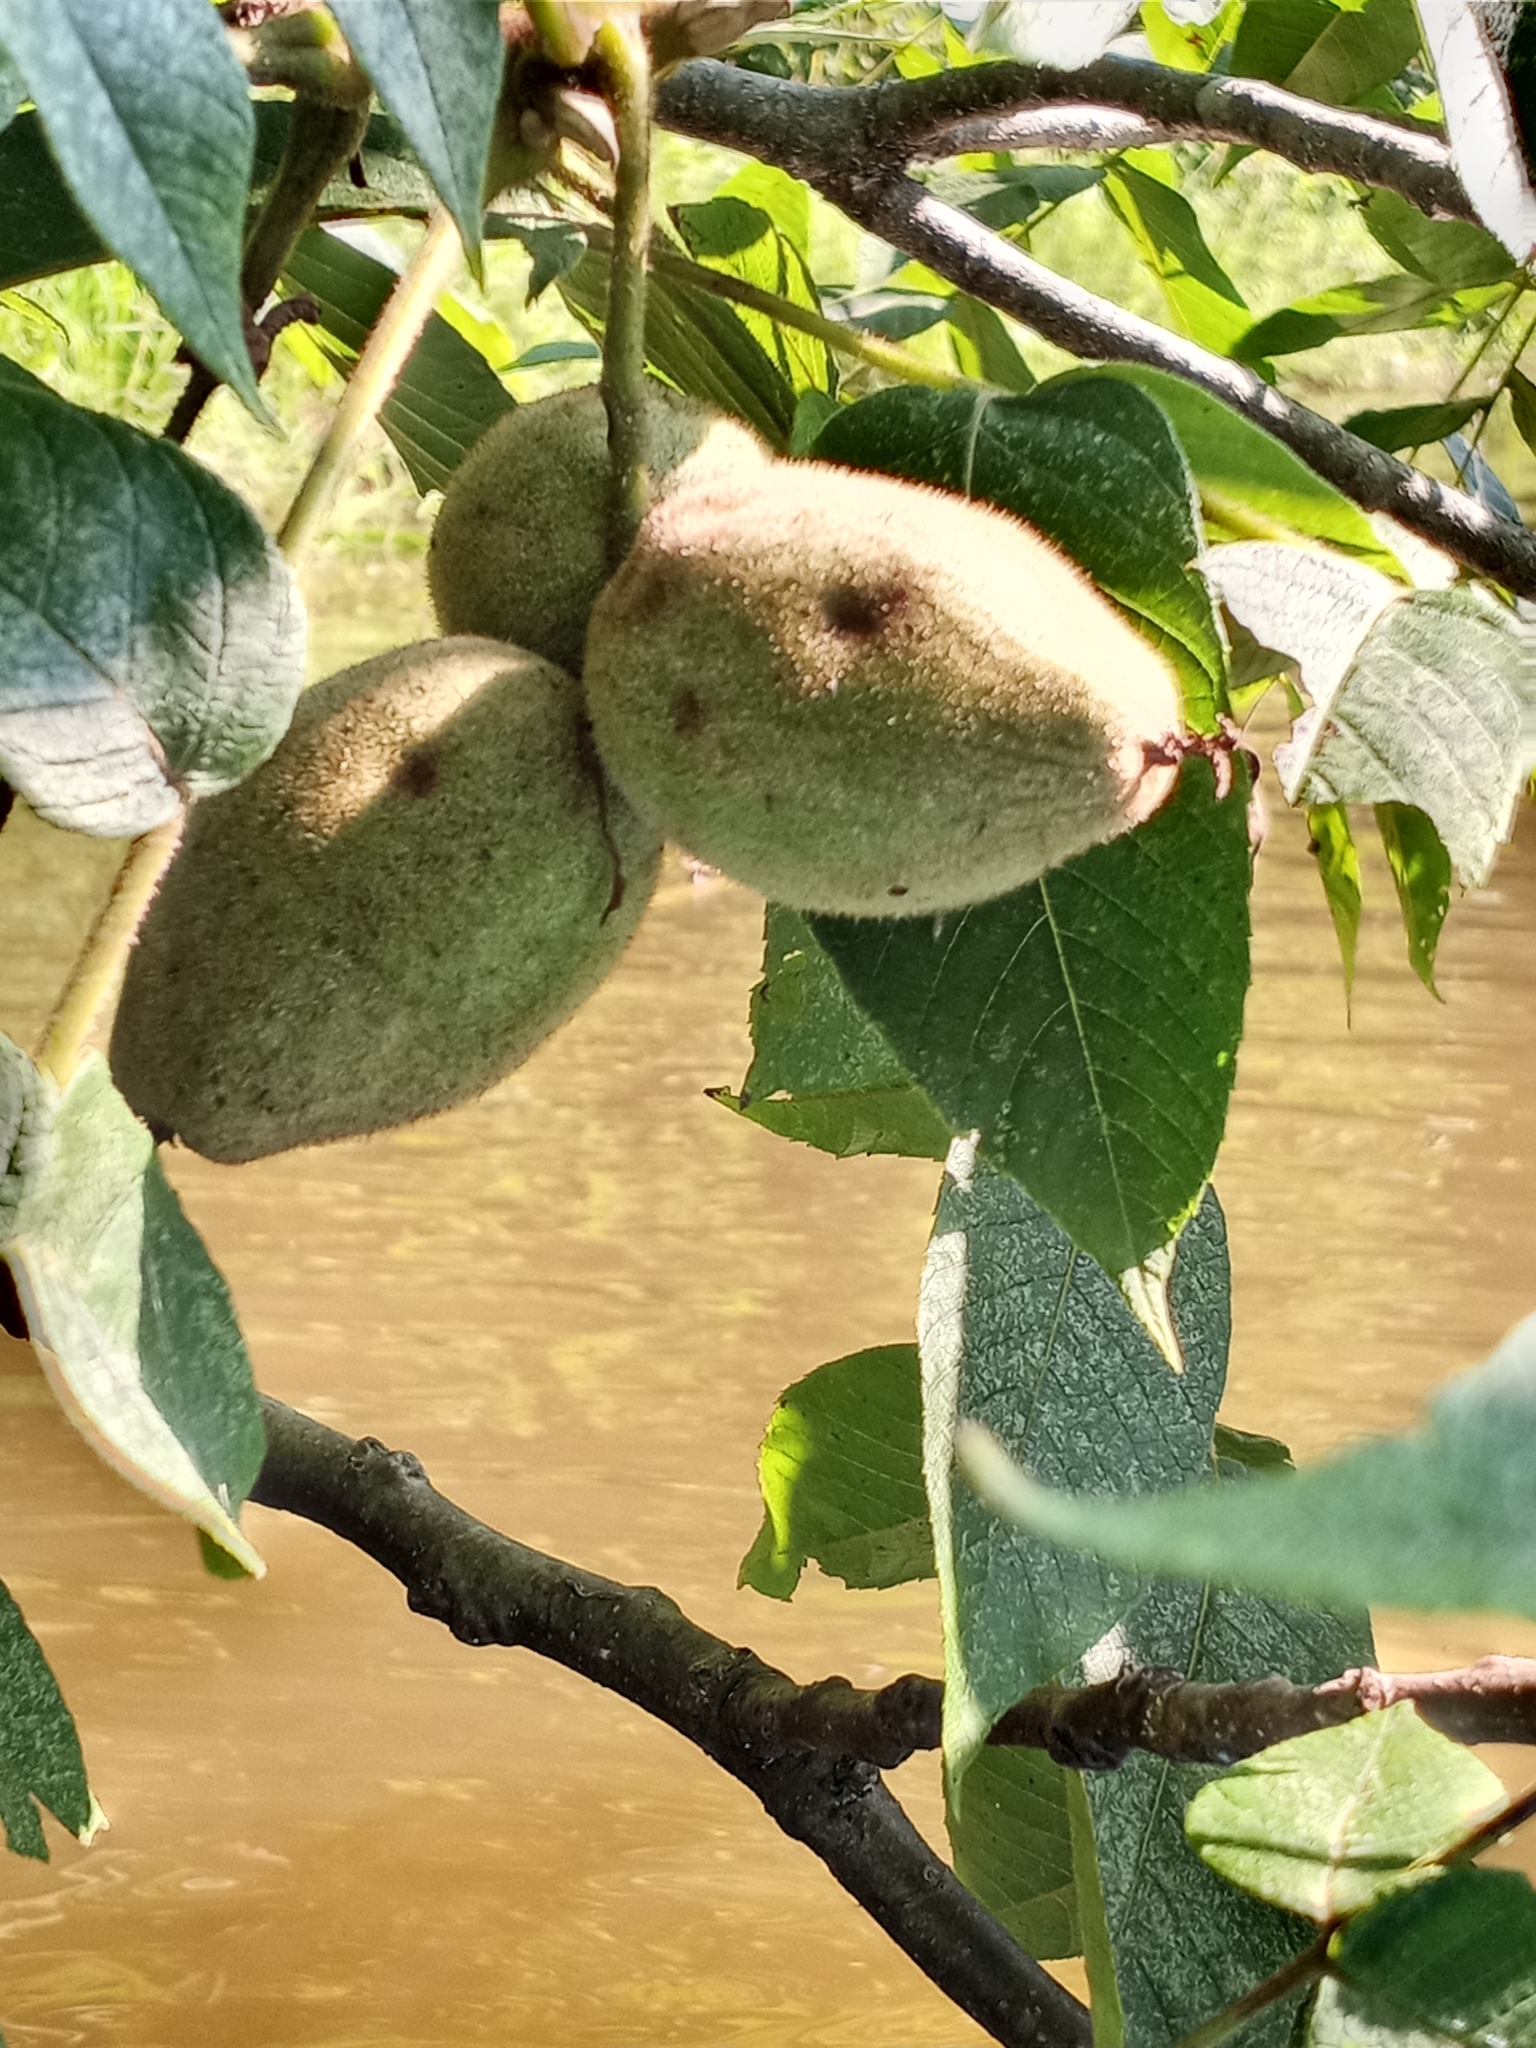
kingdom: Plantae
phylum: Tracheophyta
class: Magnoliopsida
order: Fagales
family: Juglandaceae
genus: Juglans
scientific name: Juglans cinerea
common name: Butternut
